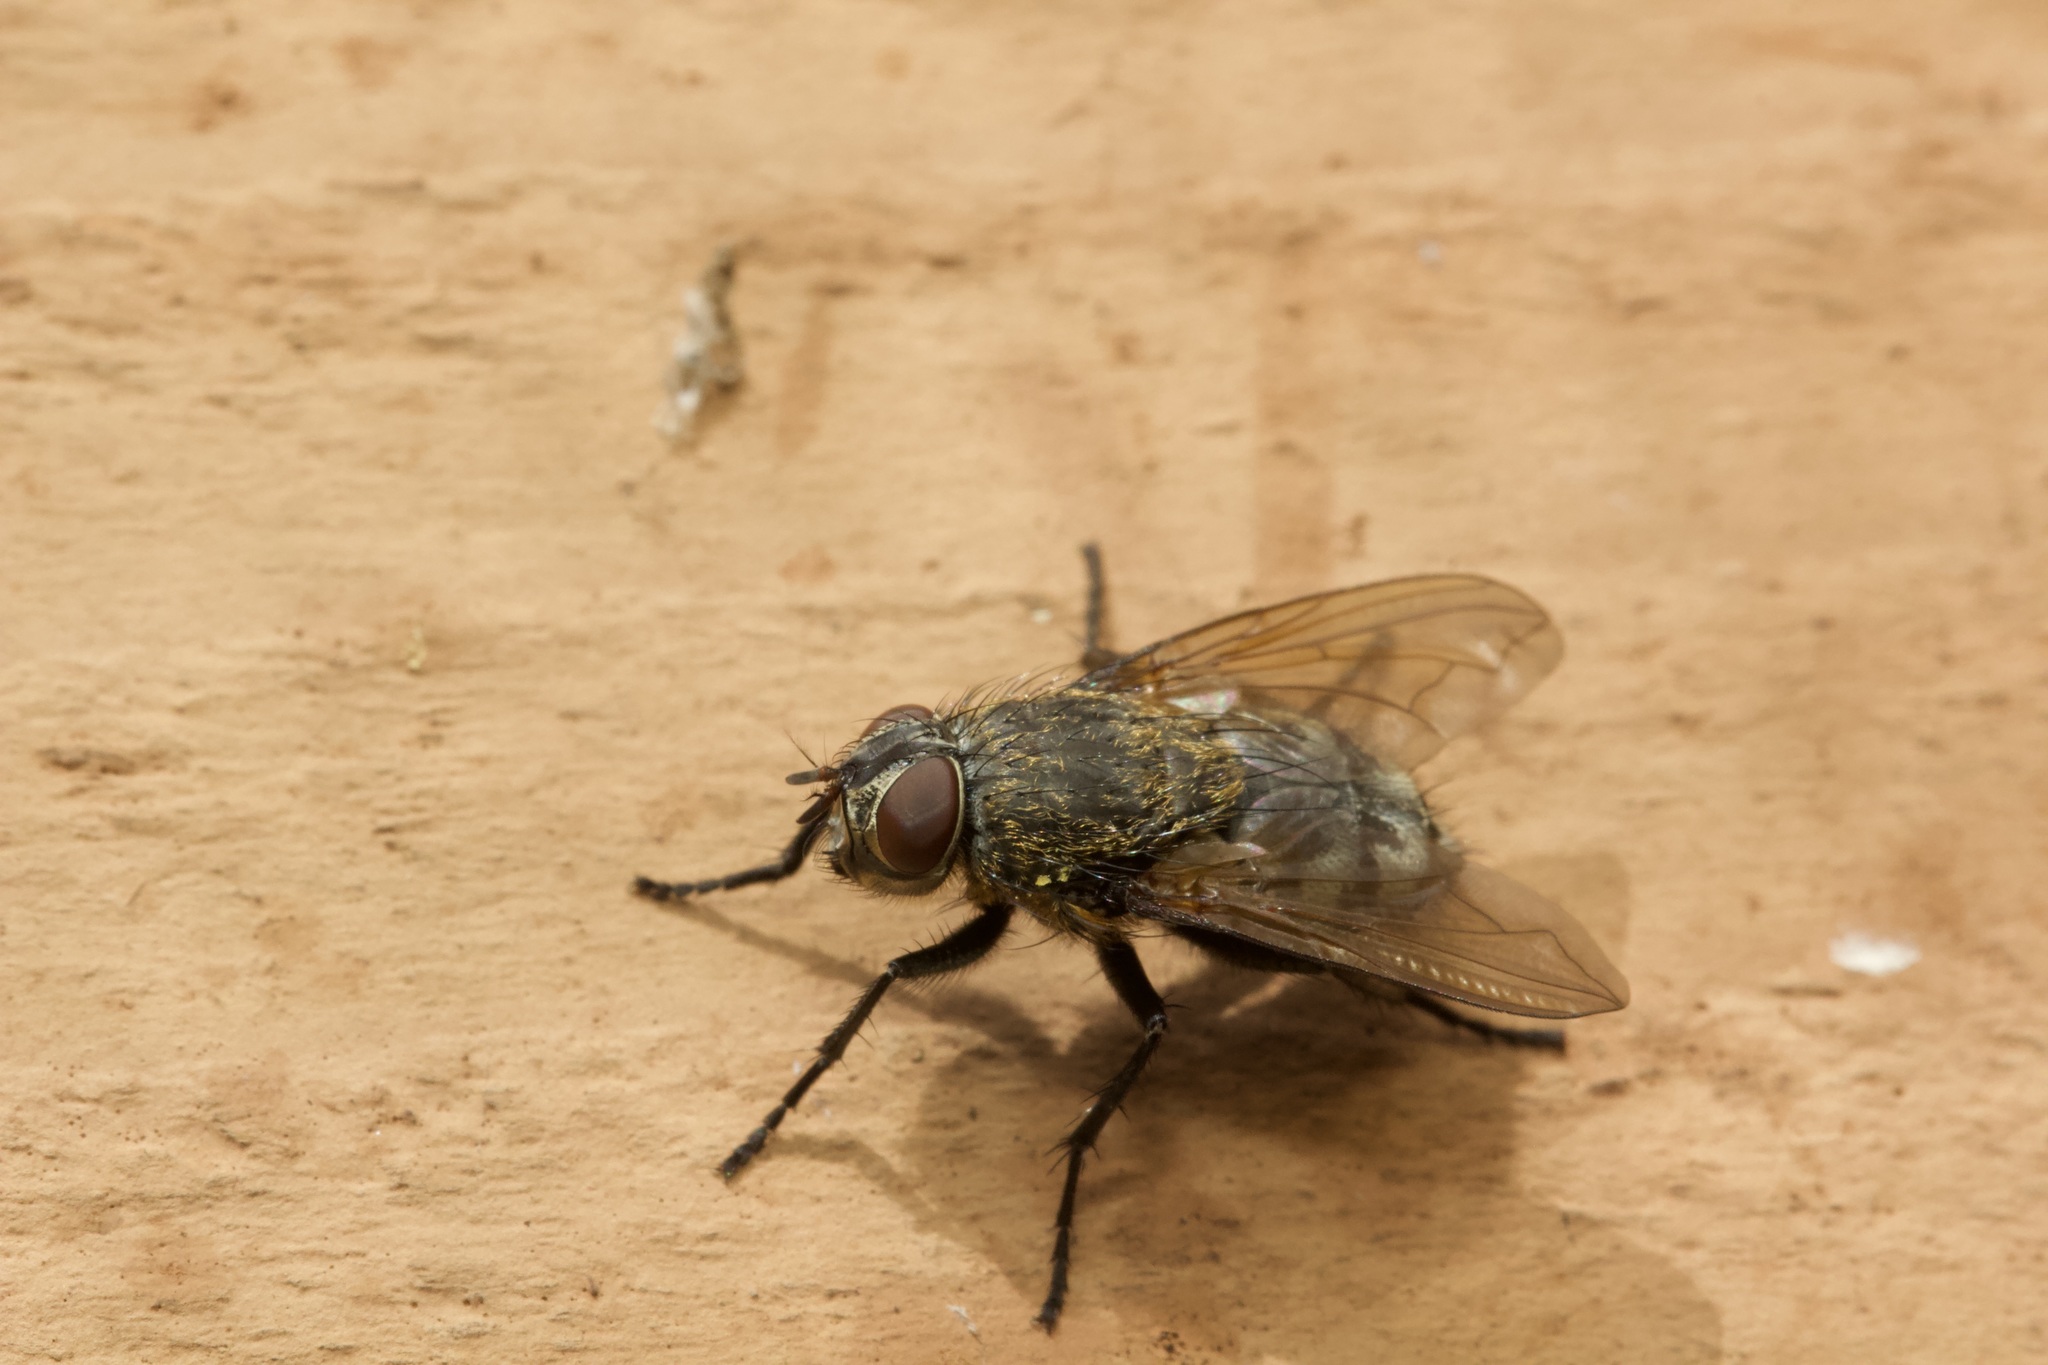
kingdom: Animalia
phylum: Arthropoda
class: Insecta
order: Diptera
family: Polleniidae
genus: Pollenia
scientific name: Pollenia
